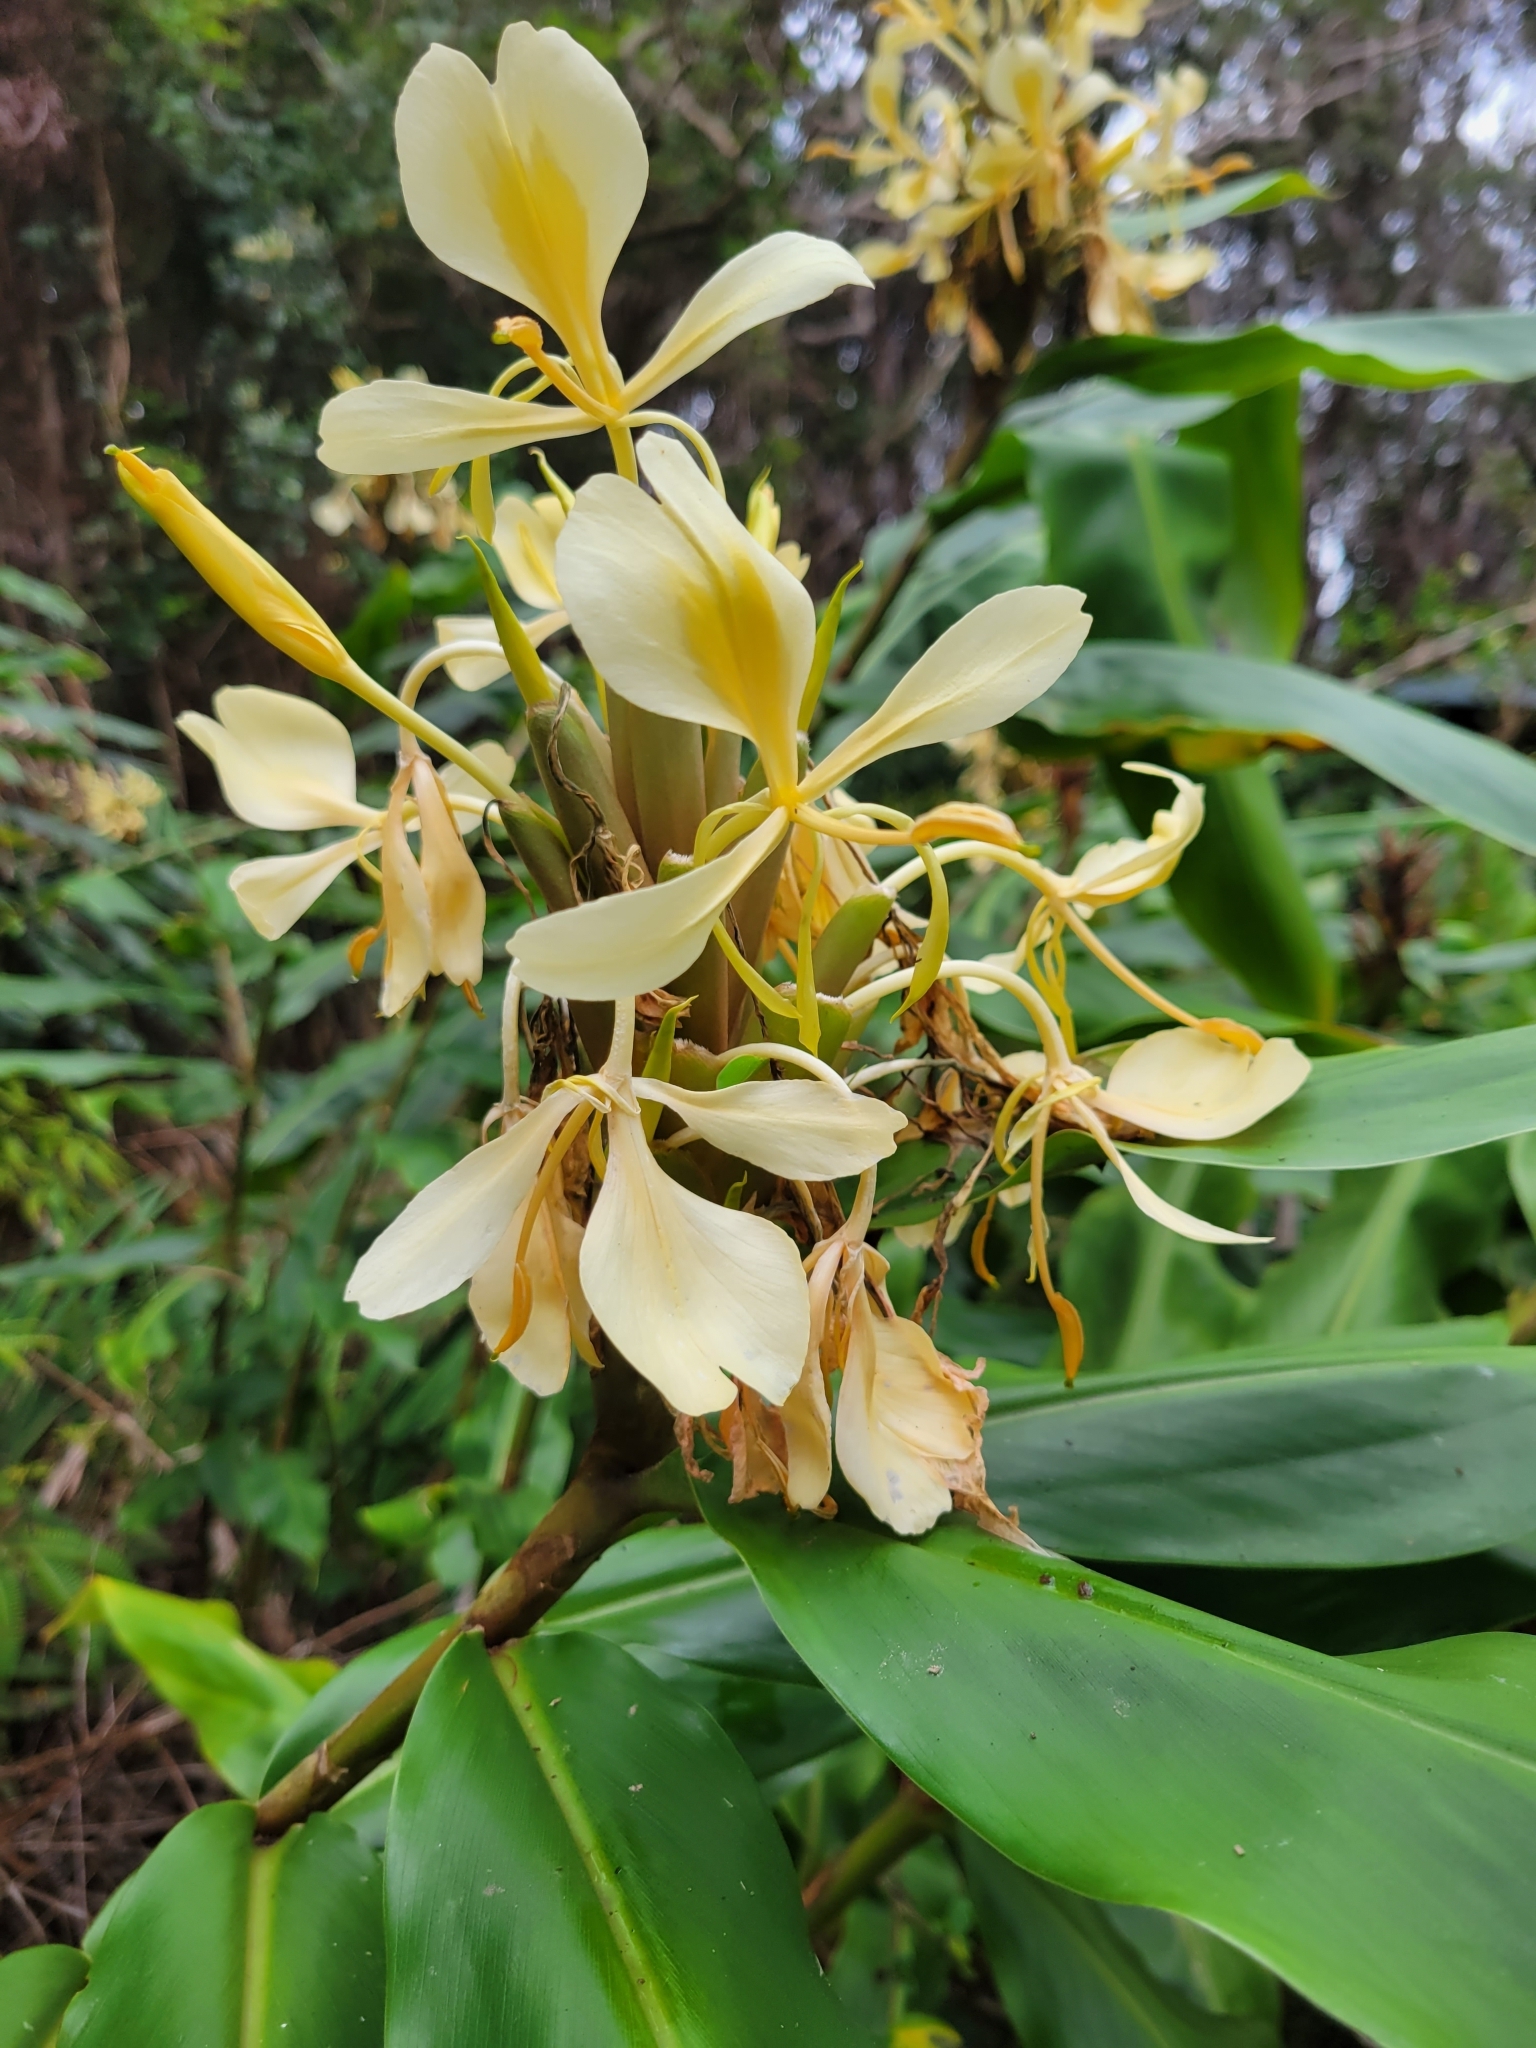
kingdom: Plantae
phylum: Tracheophyta
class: Liliopsida
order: Zingiberales
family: Zingiberaceae
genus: Hedychium
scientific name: Hedychium flavescens
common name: Yellow ginger
